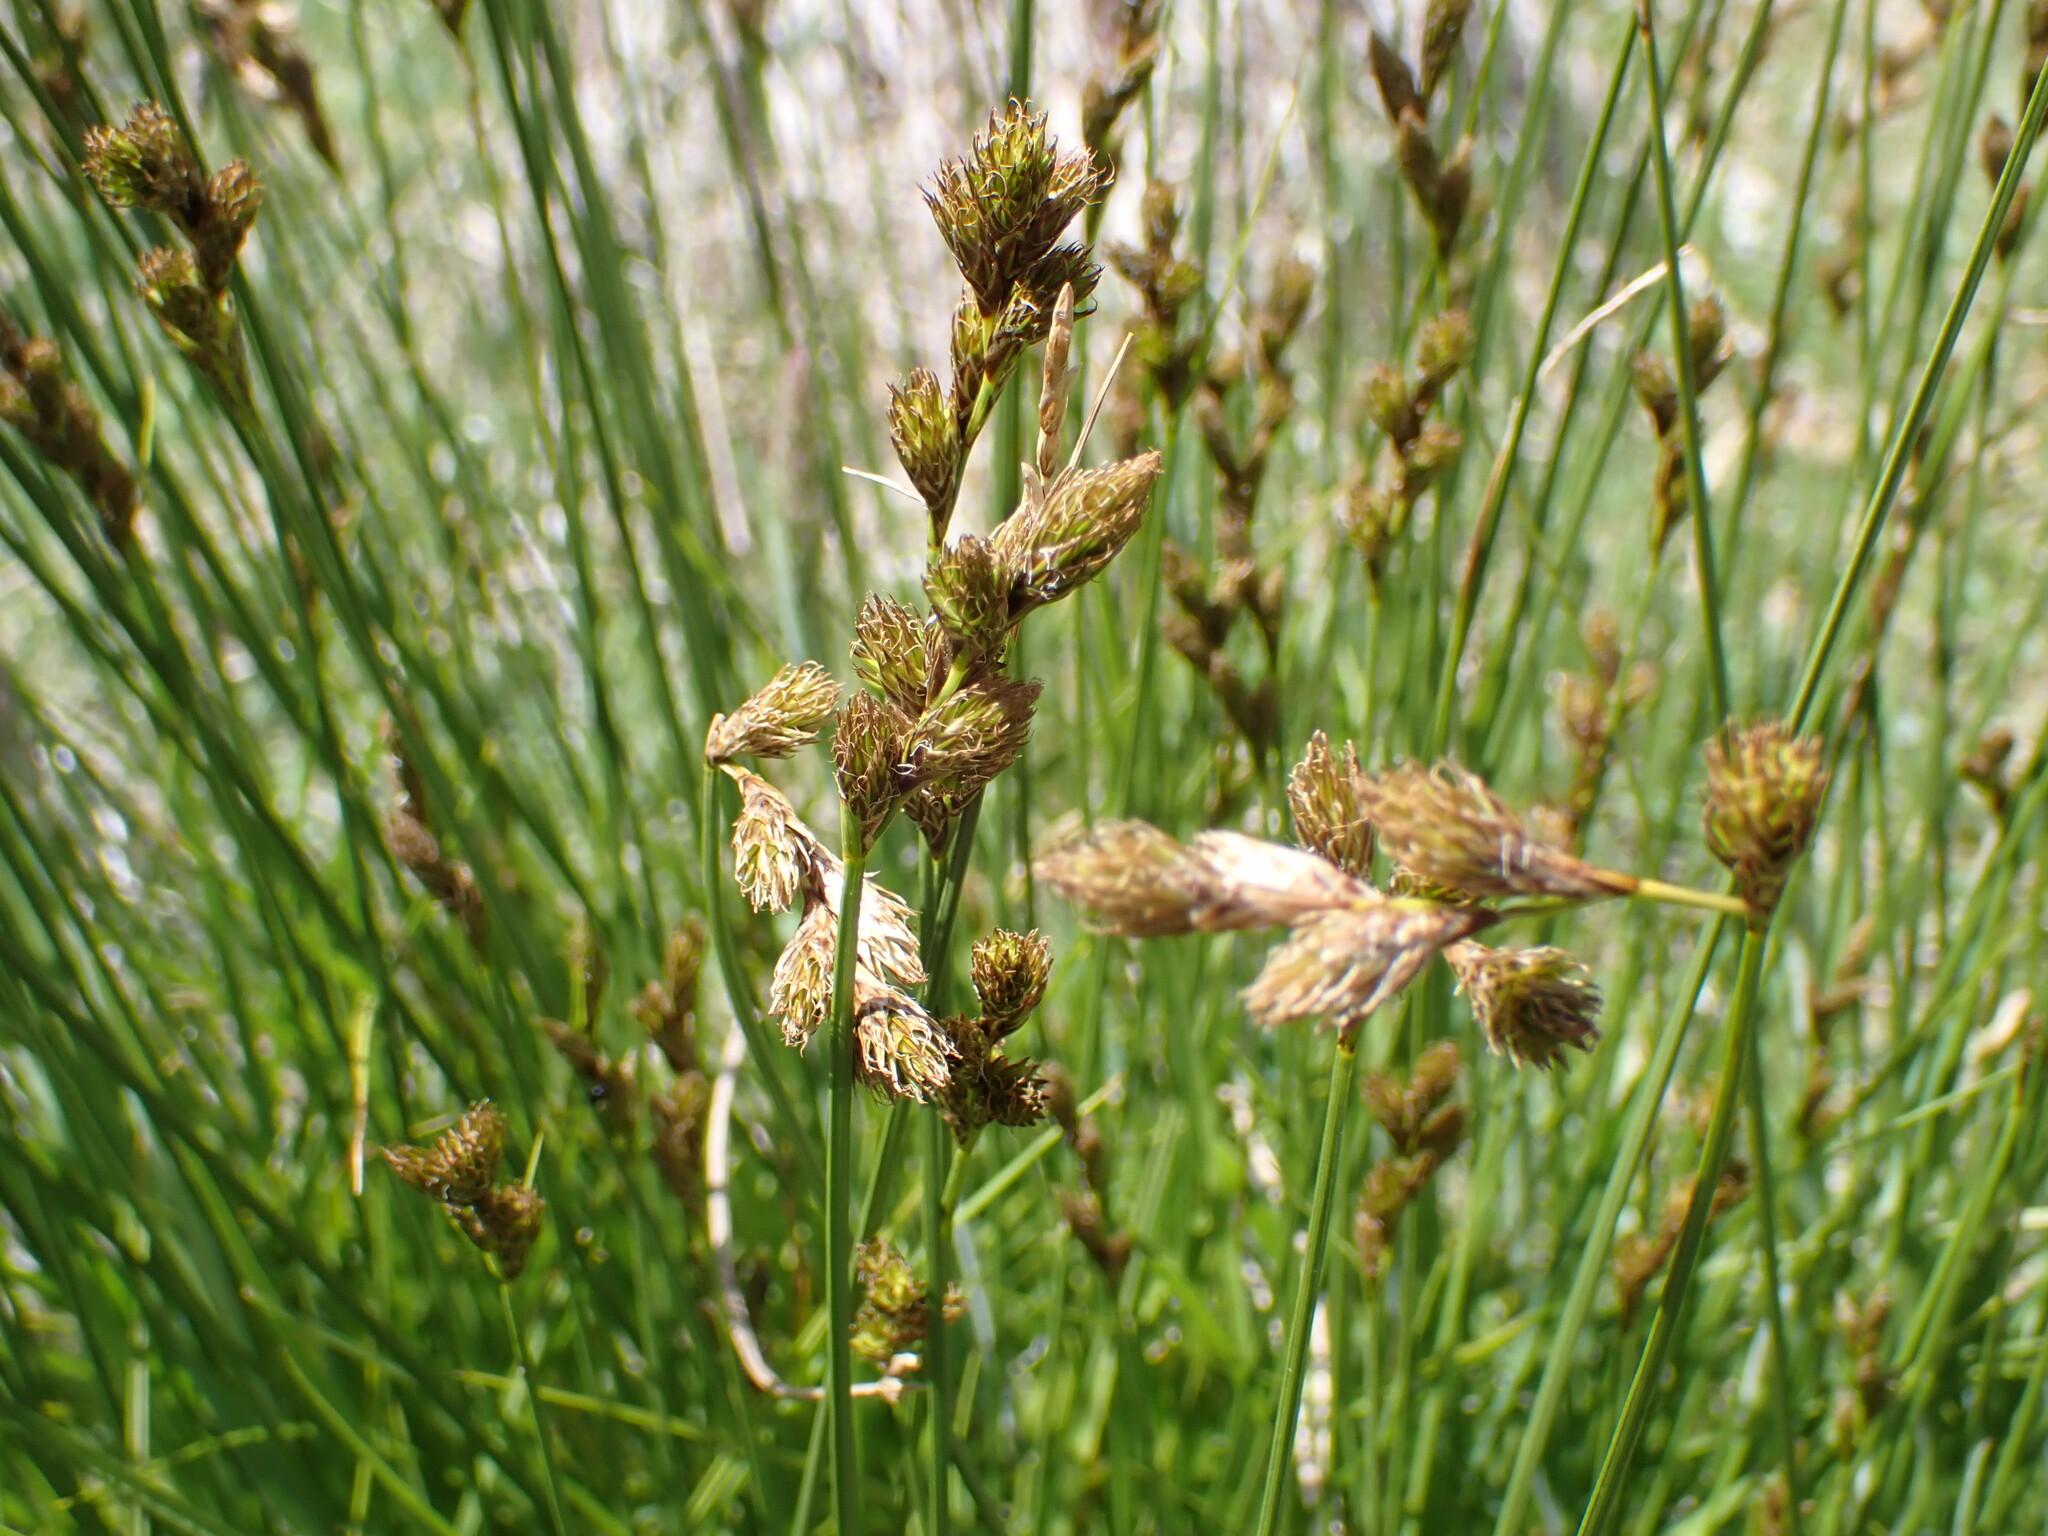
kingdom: Plantae
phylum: Tracheophyta
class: Liliopsida
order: Poales
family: Cyperaceae
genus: Carex
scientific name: Carex leporina
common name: Oval sedge
